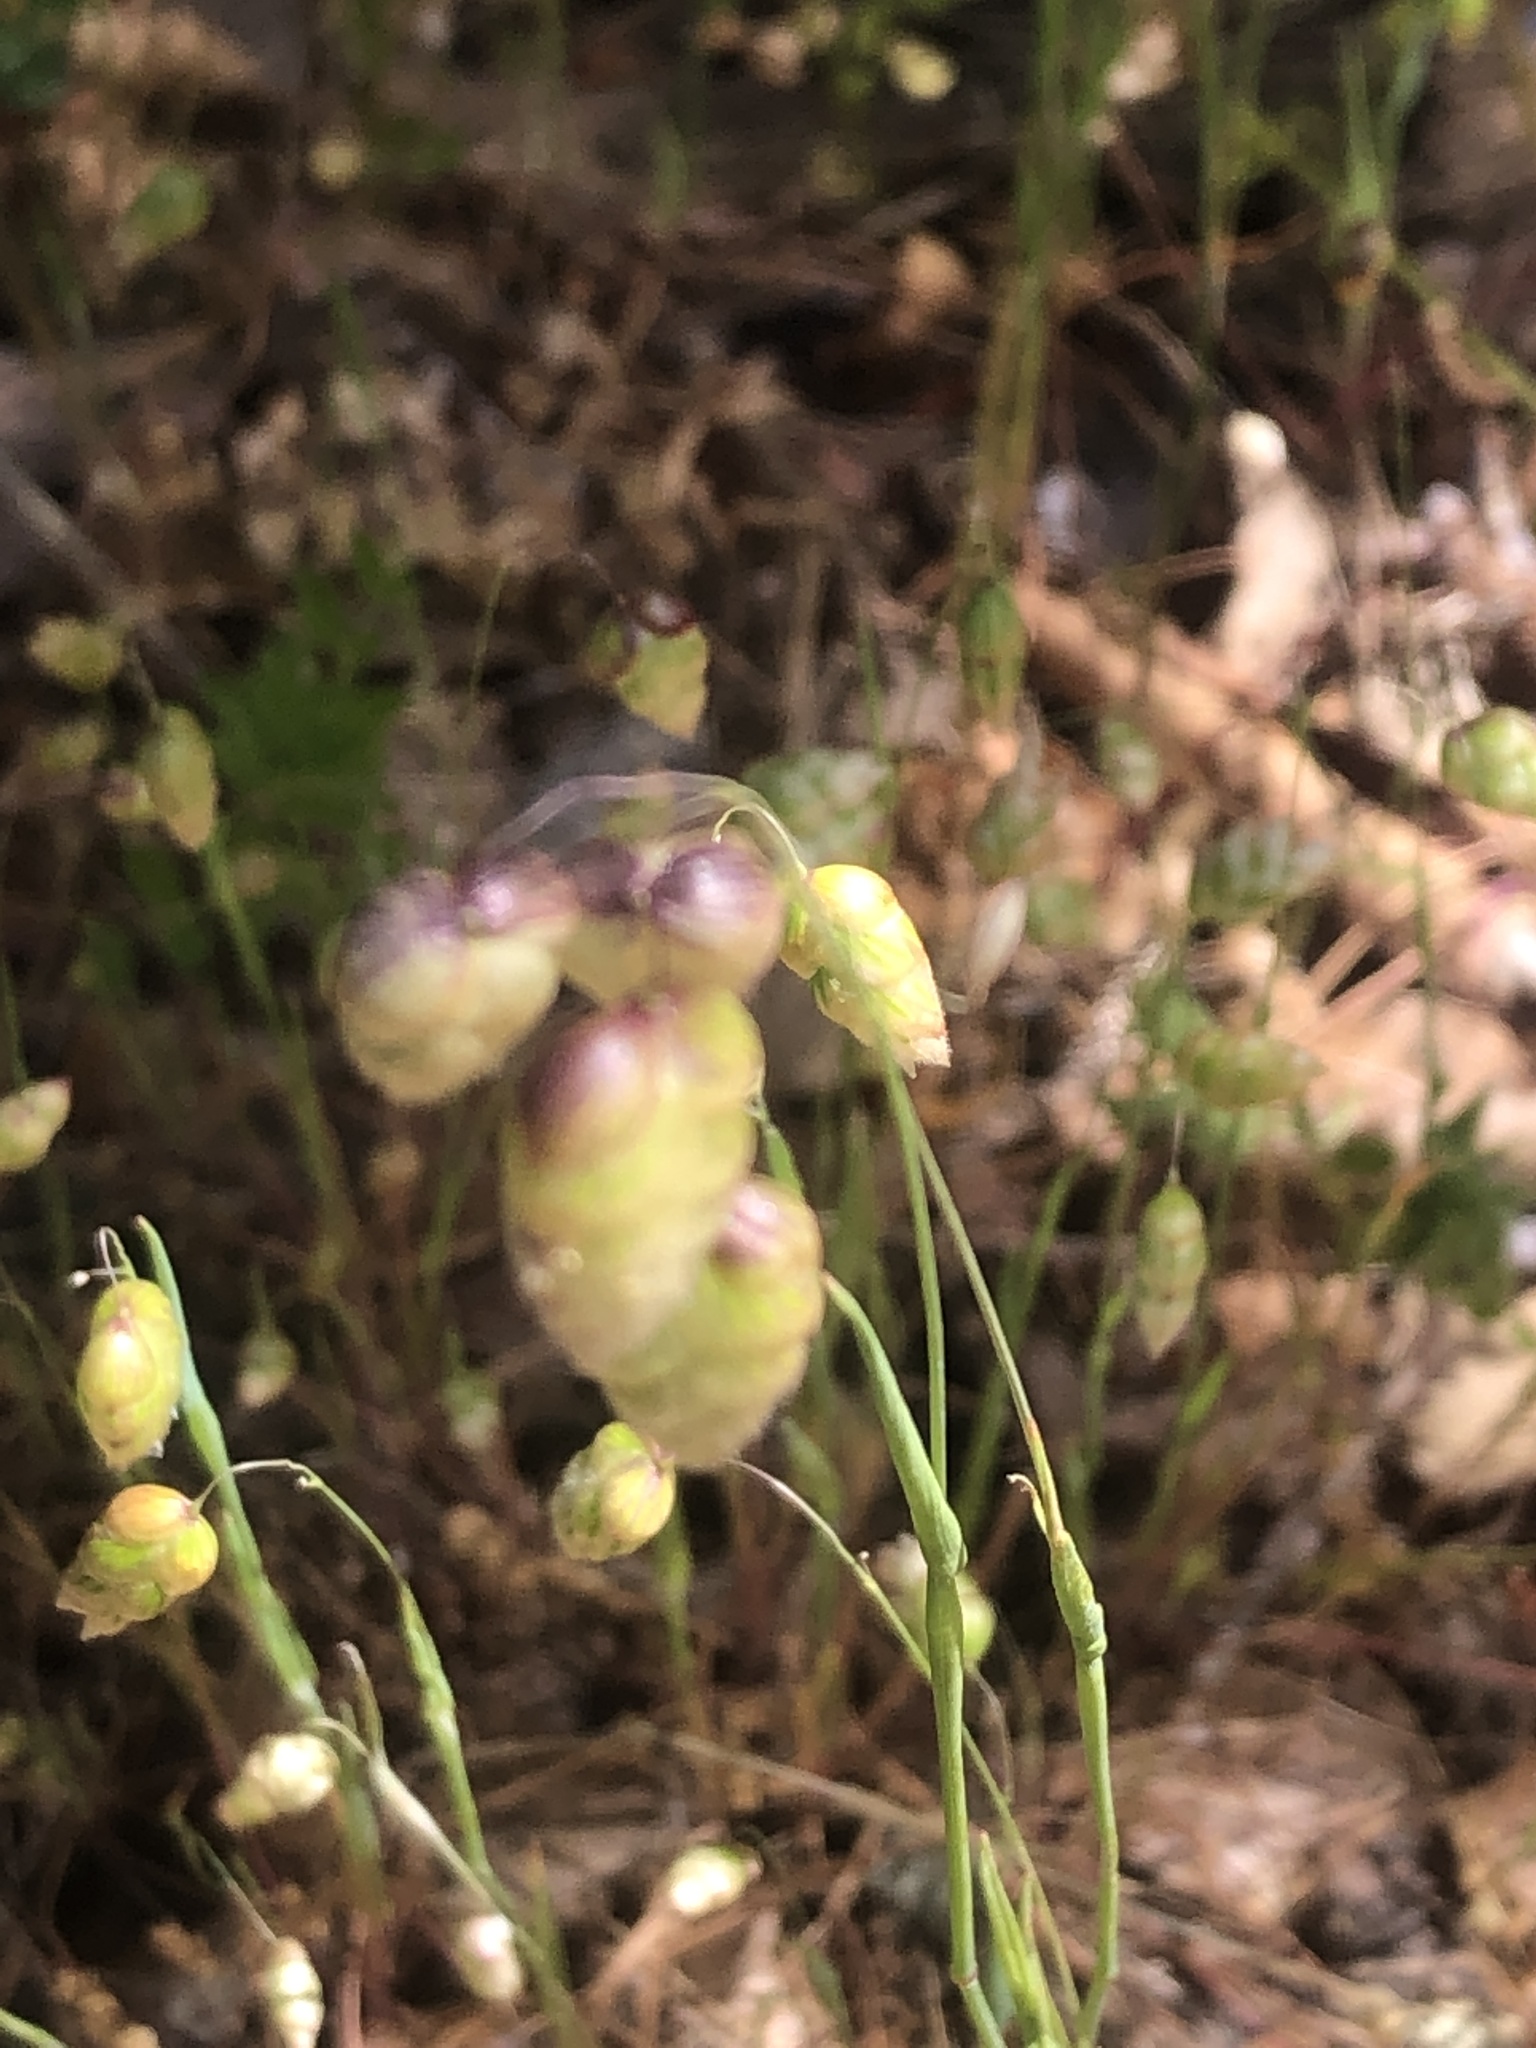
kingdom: Plantae
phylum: Tracheophyta
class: Liliopsida
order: Poales
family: Poaceae
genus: Briza
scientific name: Briza maxima
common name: Big quakinggrass
